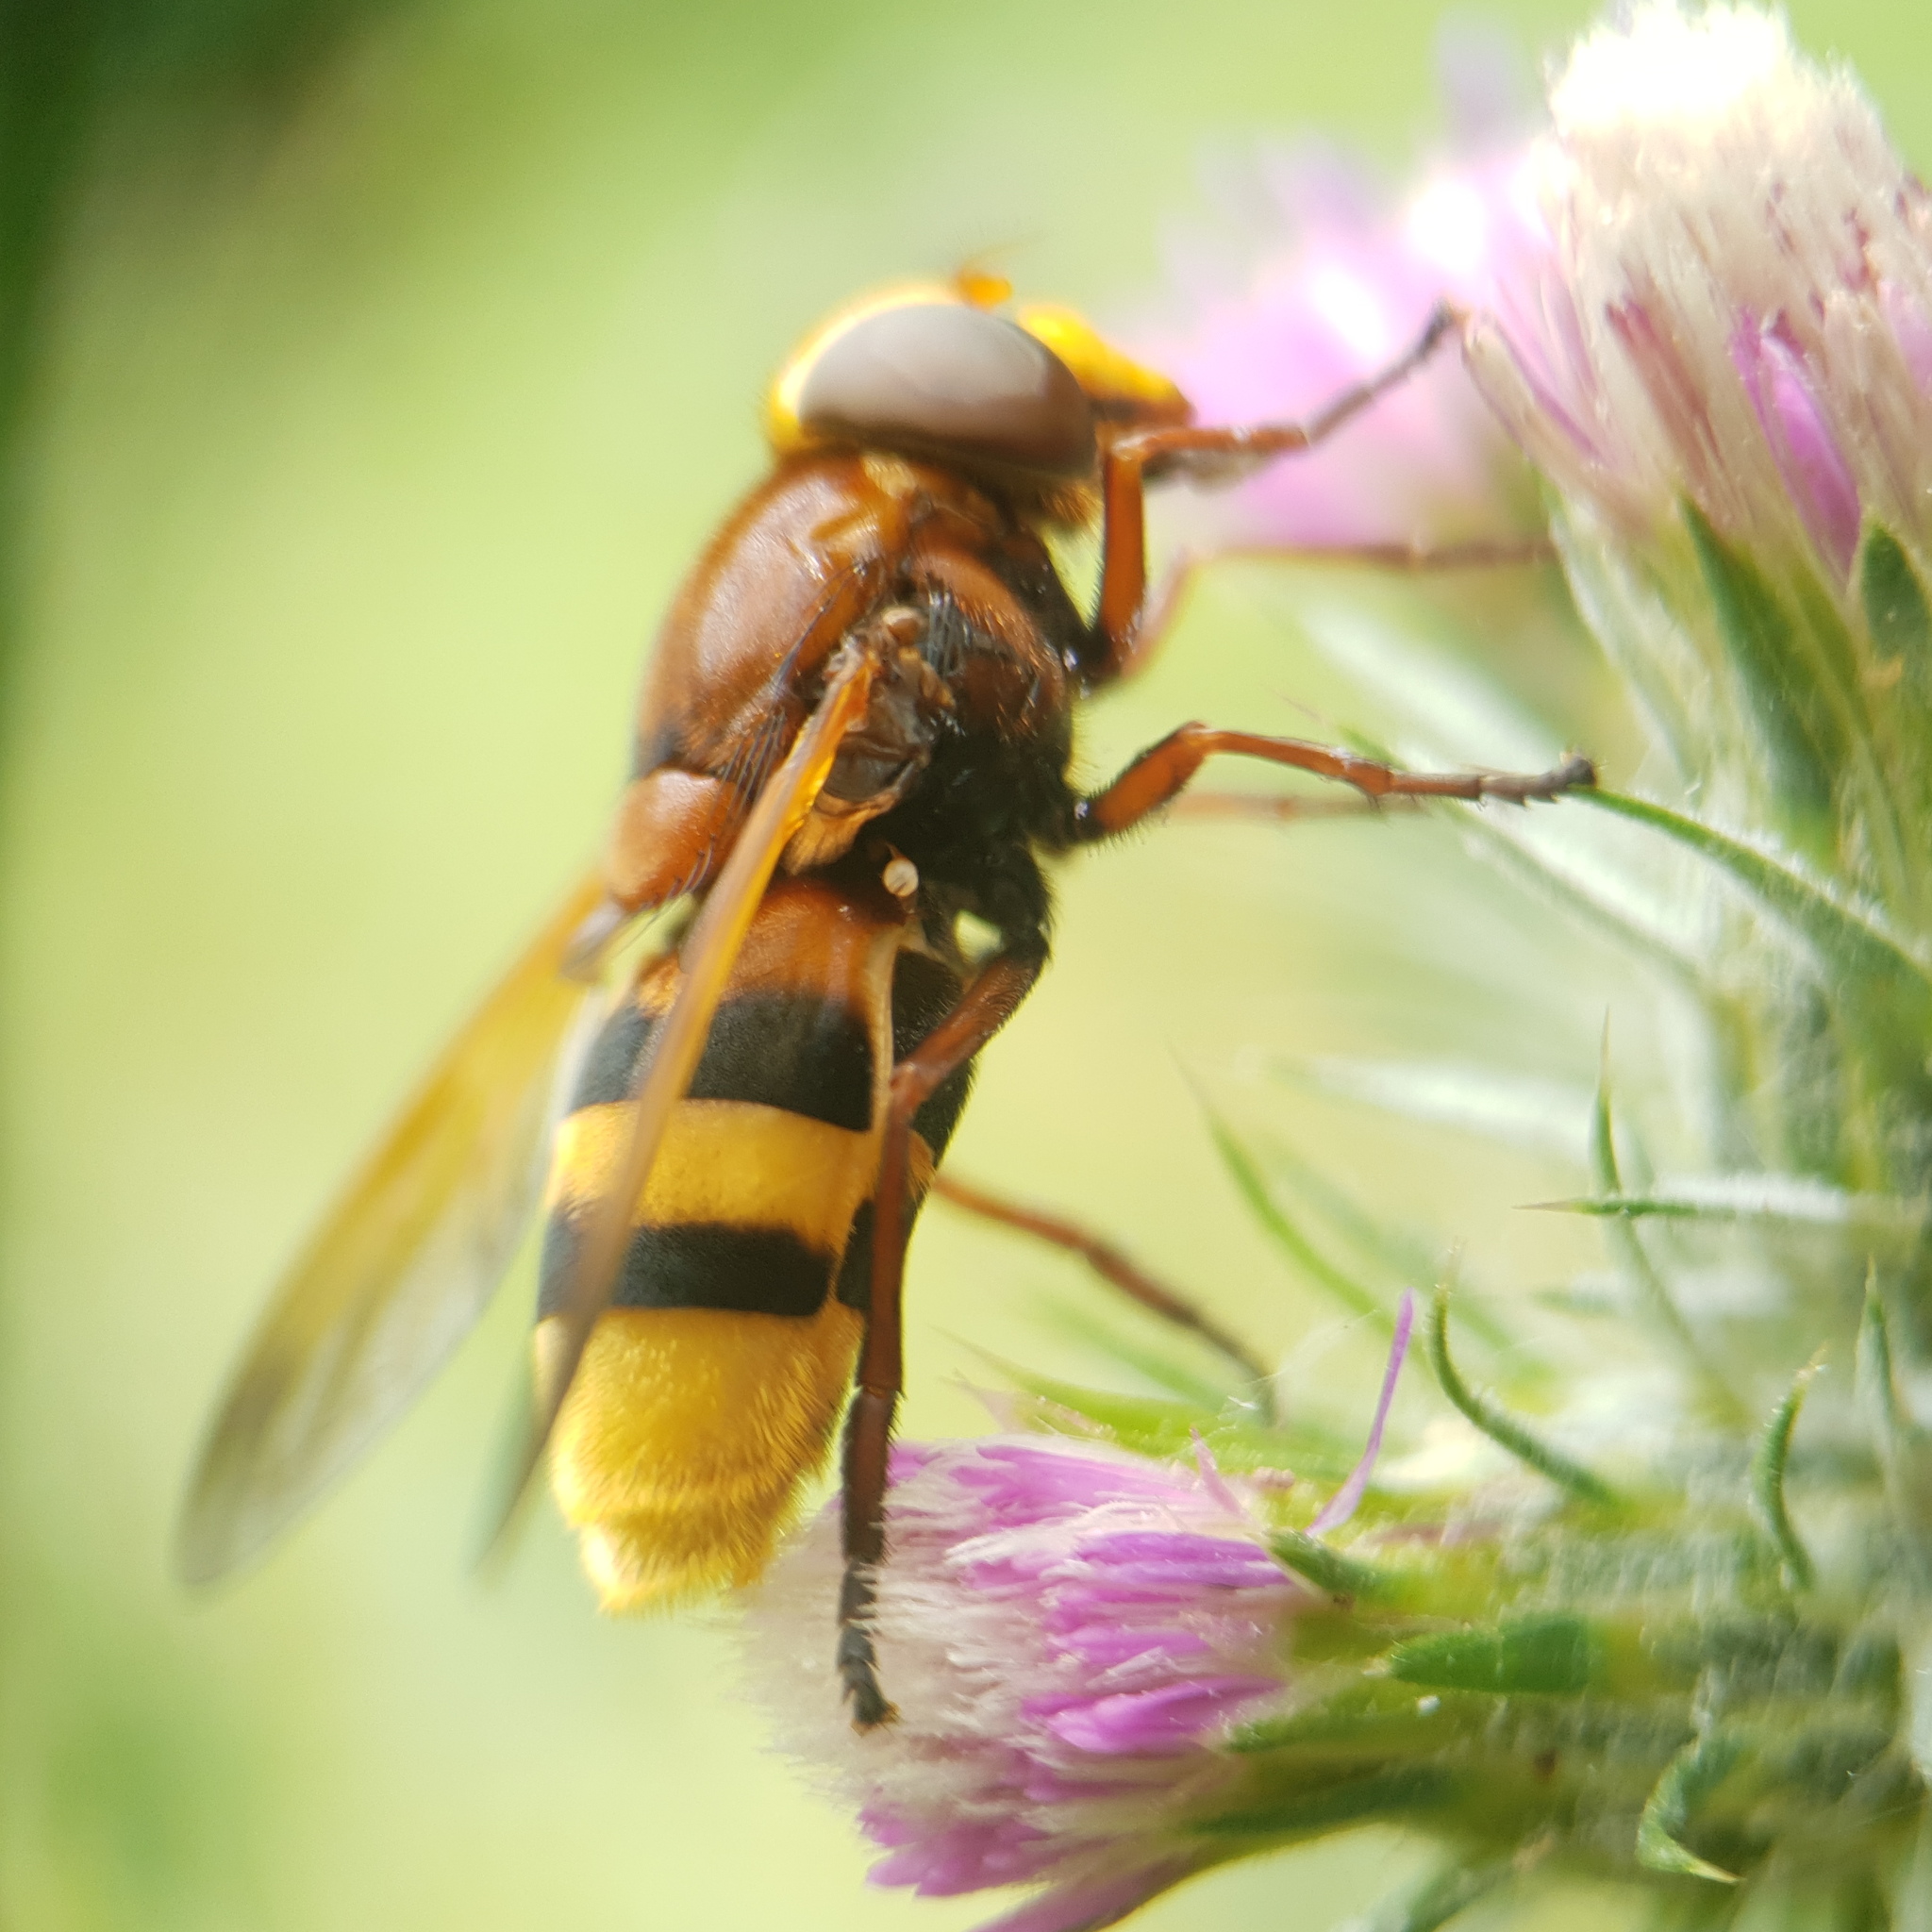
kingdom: Animalia
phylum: Arthropoda
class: Insecta
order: Diptera
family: Syrphidae
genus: Volucella
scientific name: Volucella zonaria
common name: Hornet hoverfly
